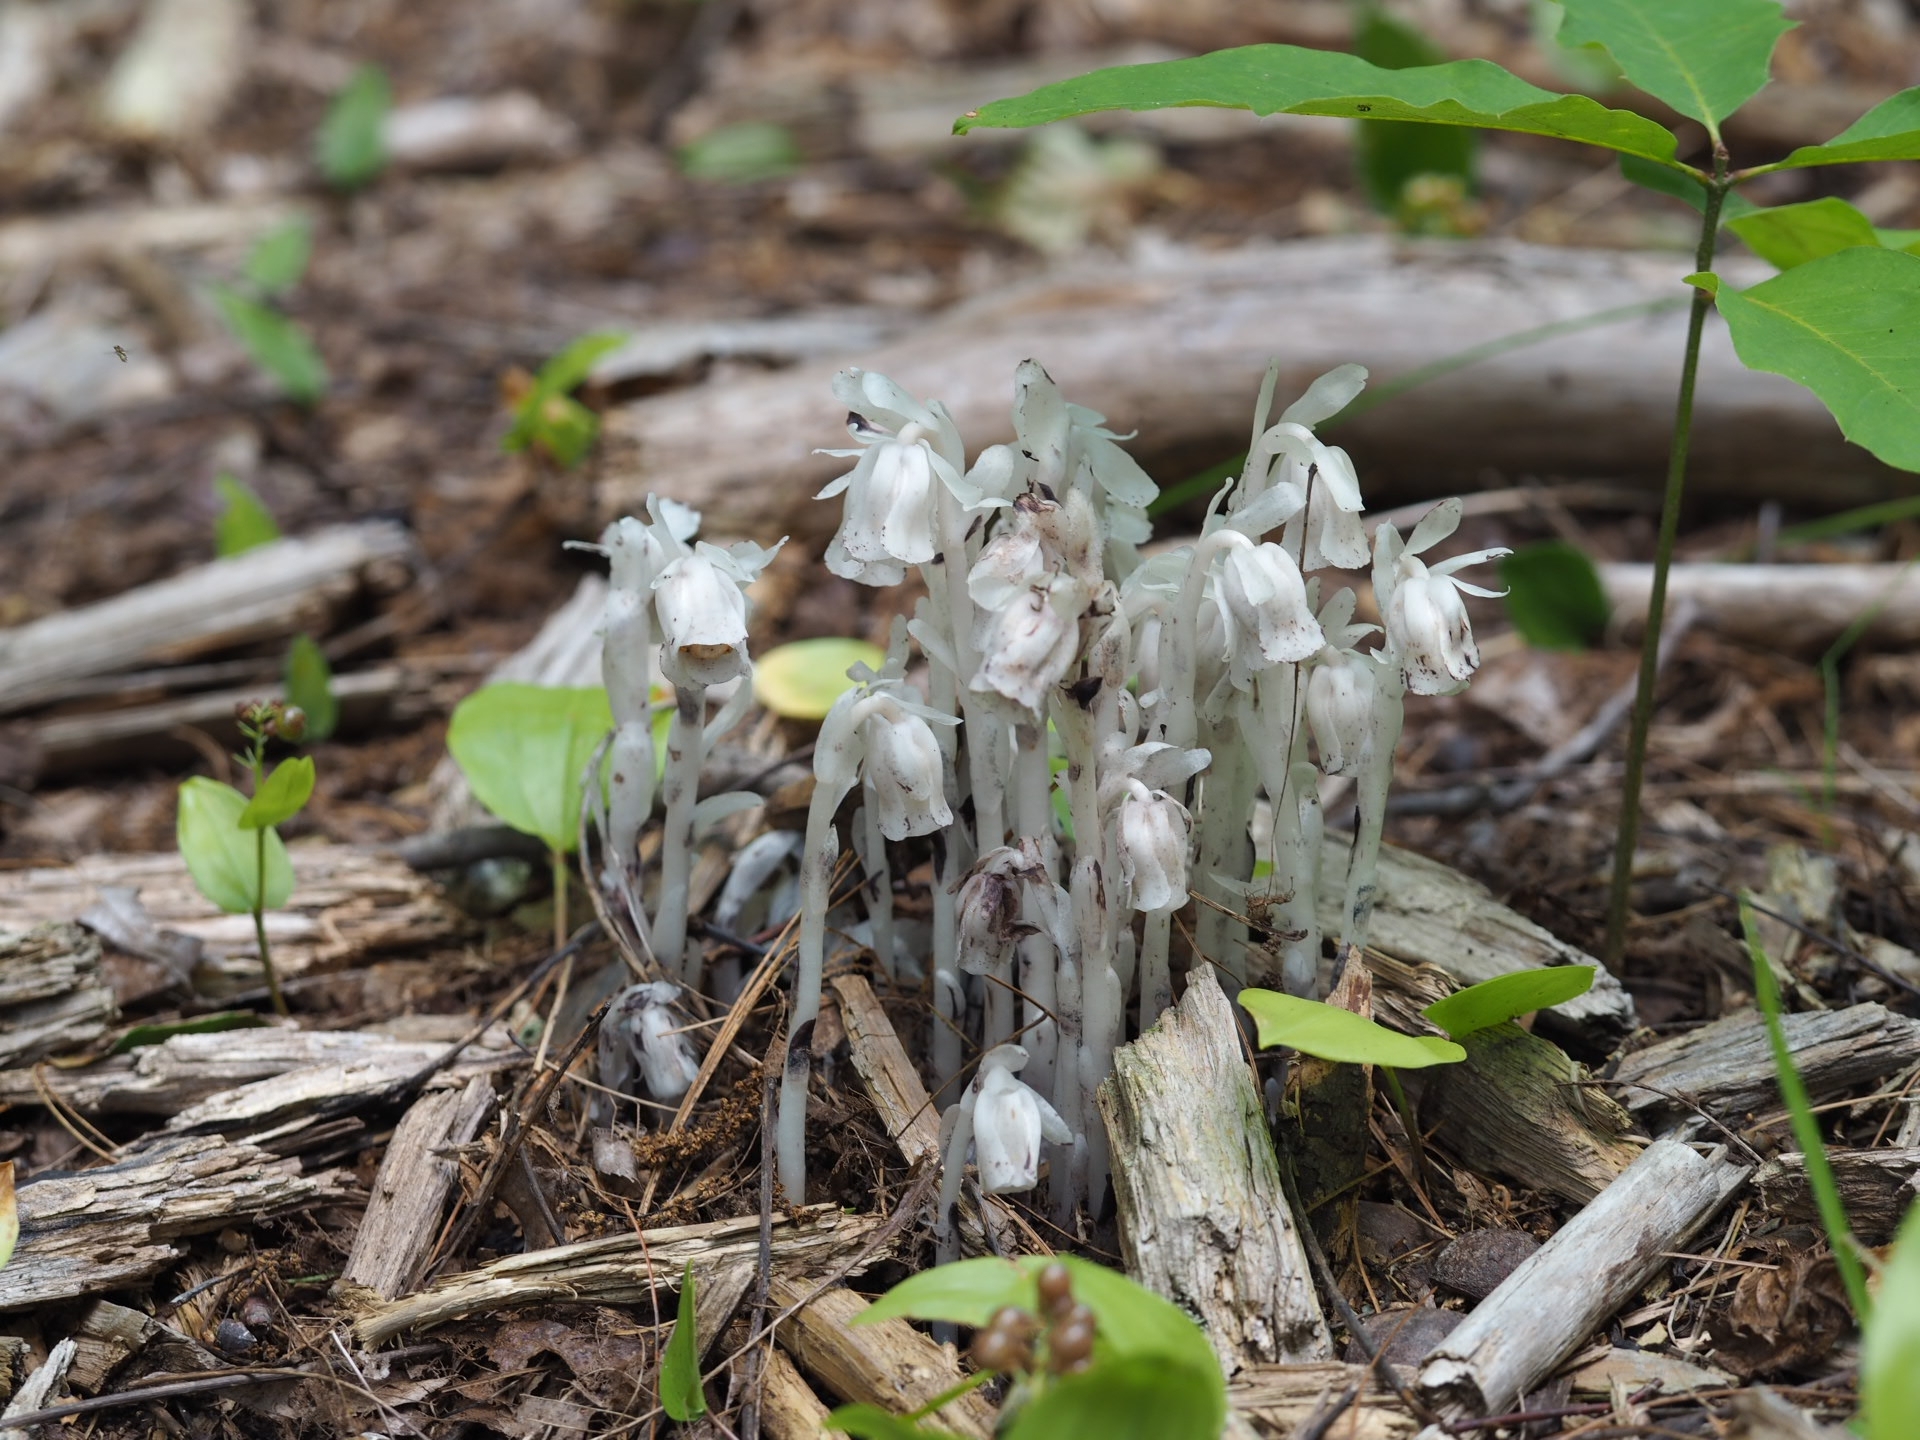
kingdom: Plantae
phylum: Tracheophyta
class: Magnoliopsida
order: Ericales
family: Ericaceae
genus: Monotropa
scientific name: Monotropa uniflora
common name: Convulsion root
